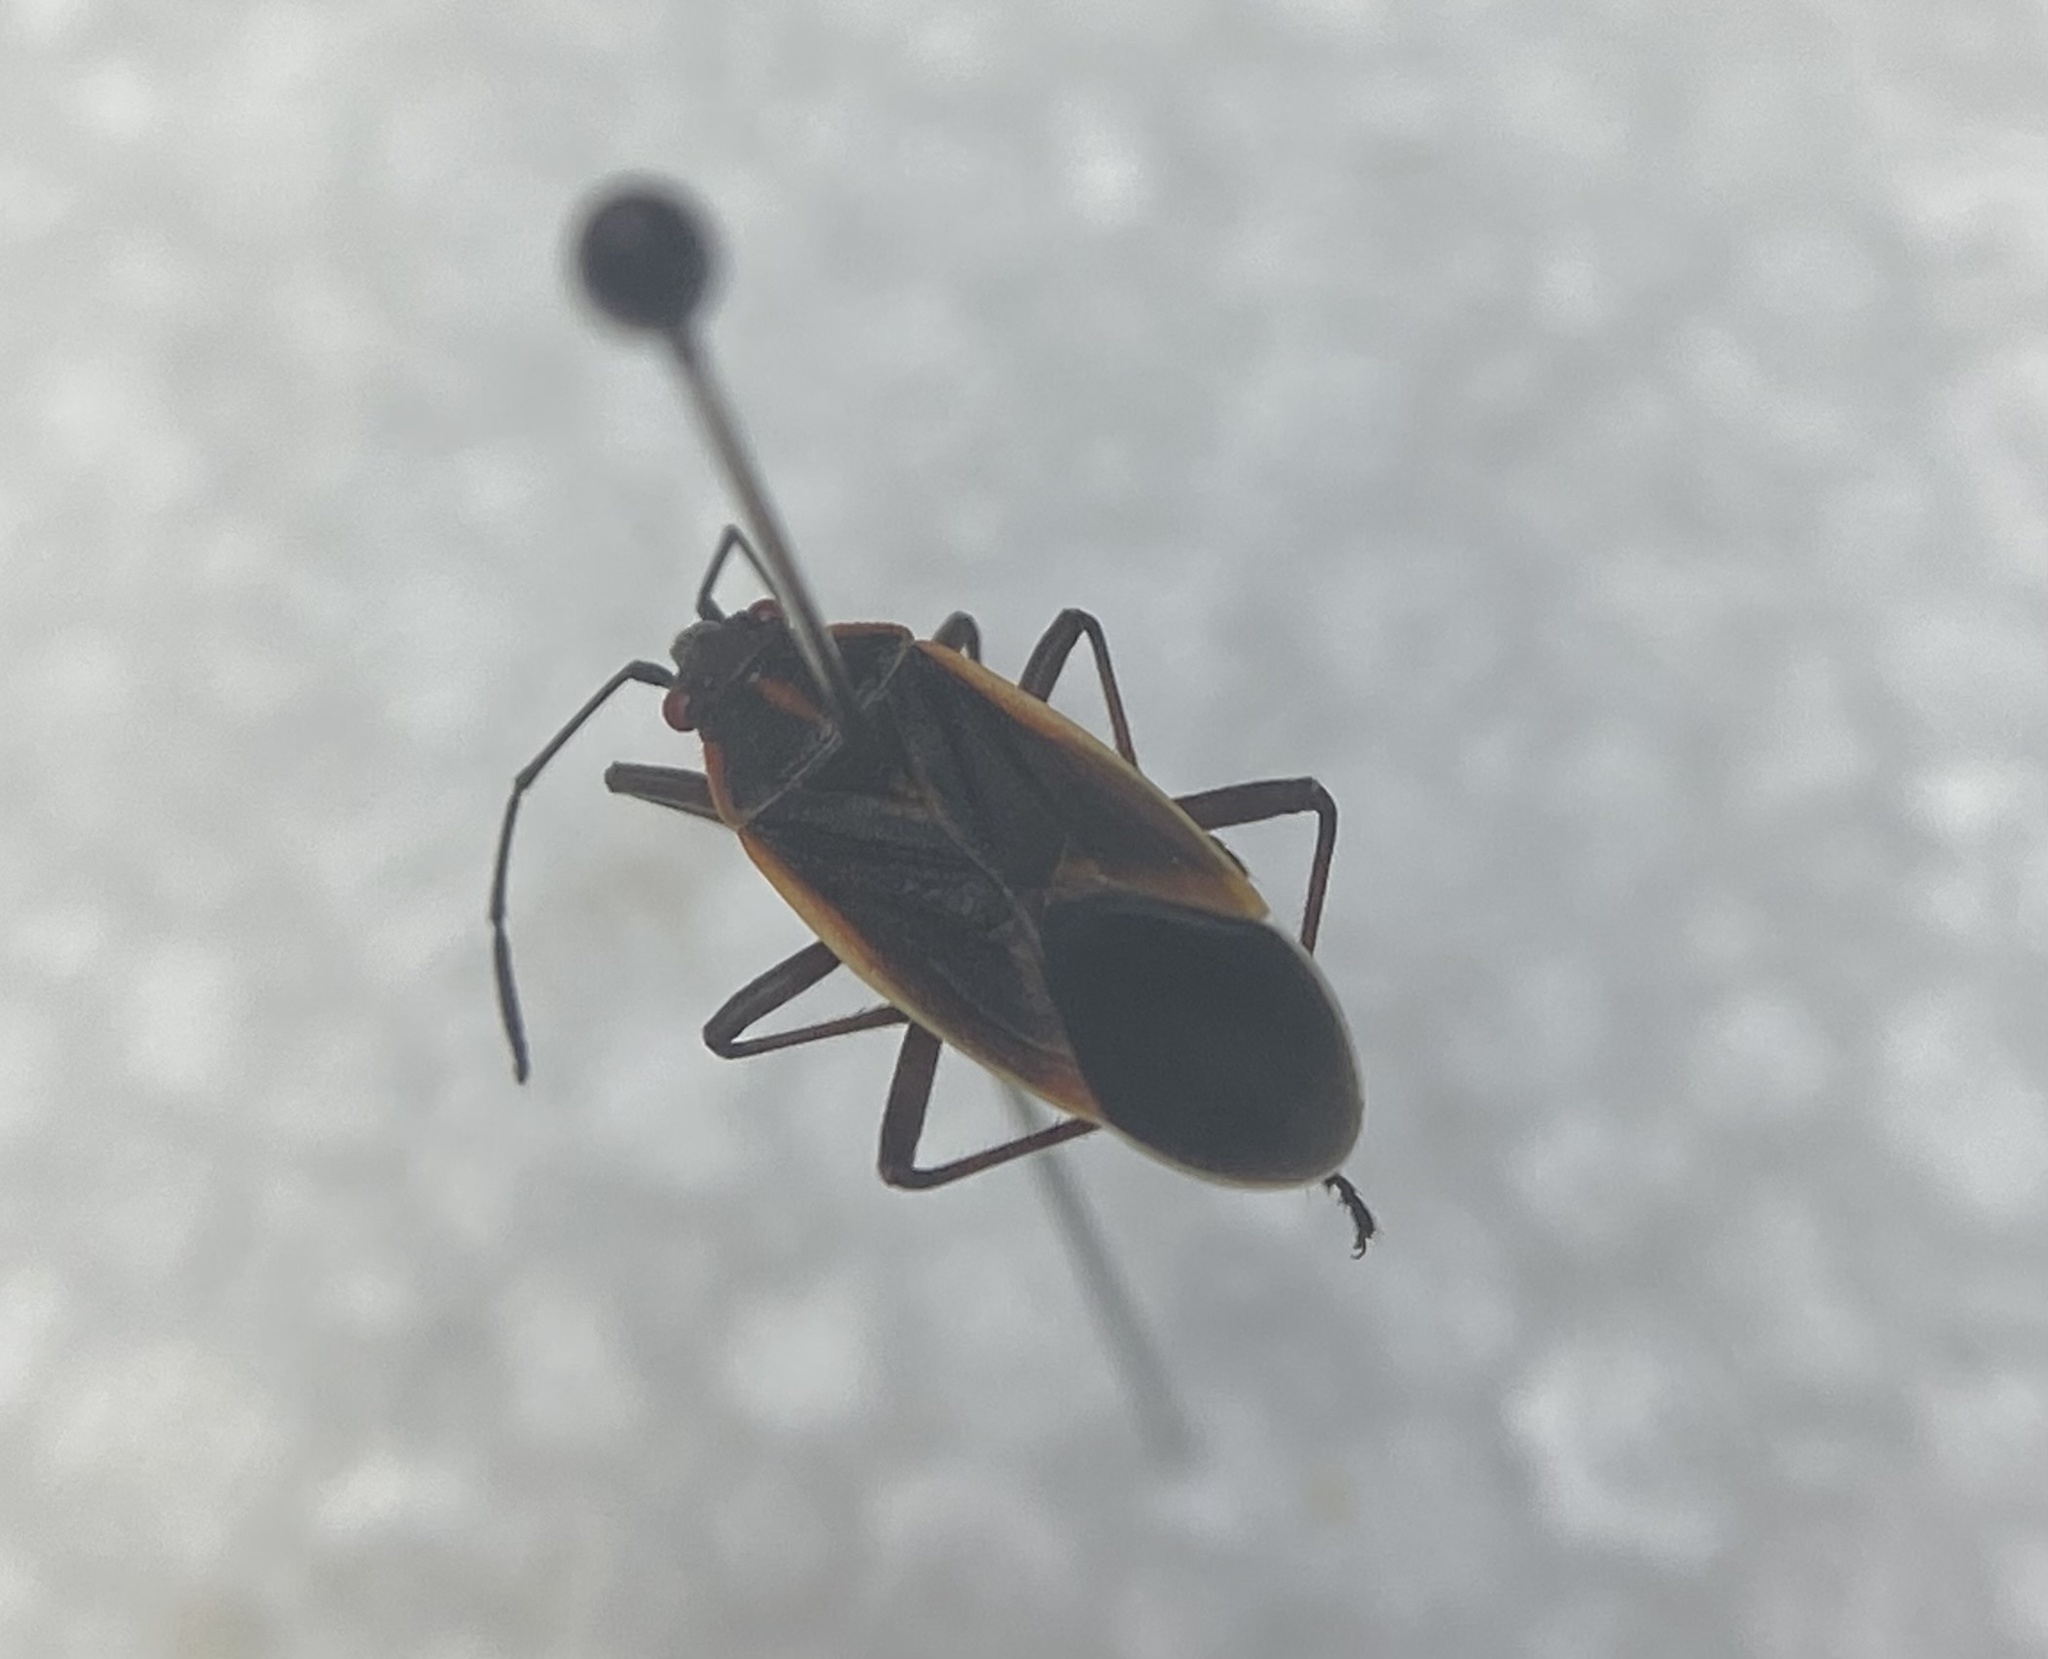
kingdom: Animalia
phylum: Arthropoda
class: Insecta
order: Hemiptera
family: Rhopalidae
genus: Boisea
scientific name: Boisea trivittata
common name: Boxelder bug
